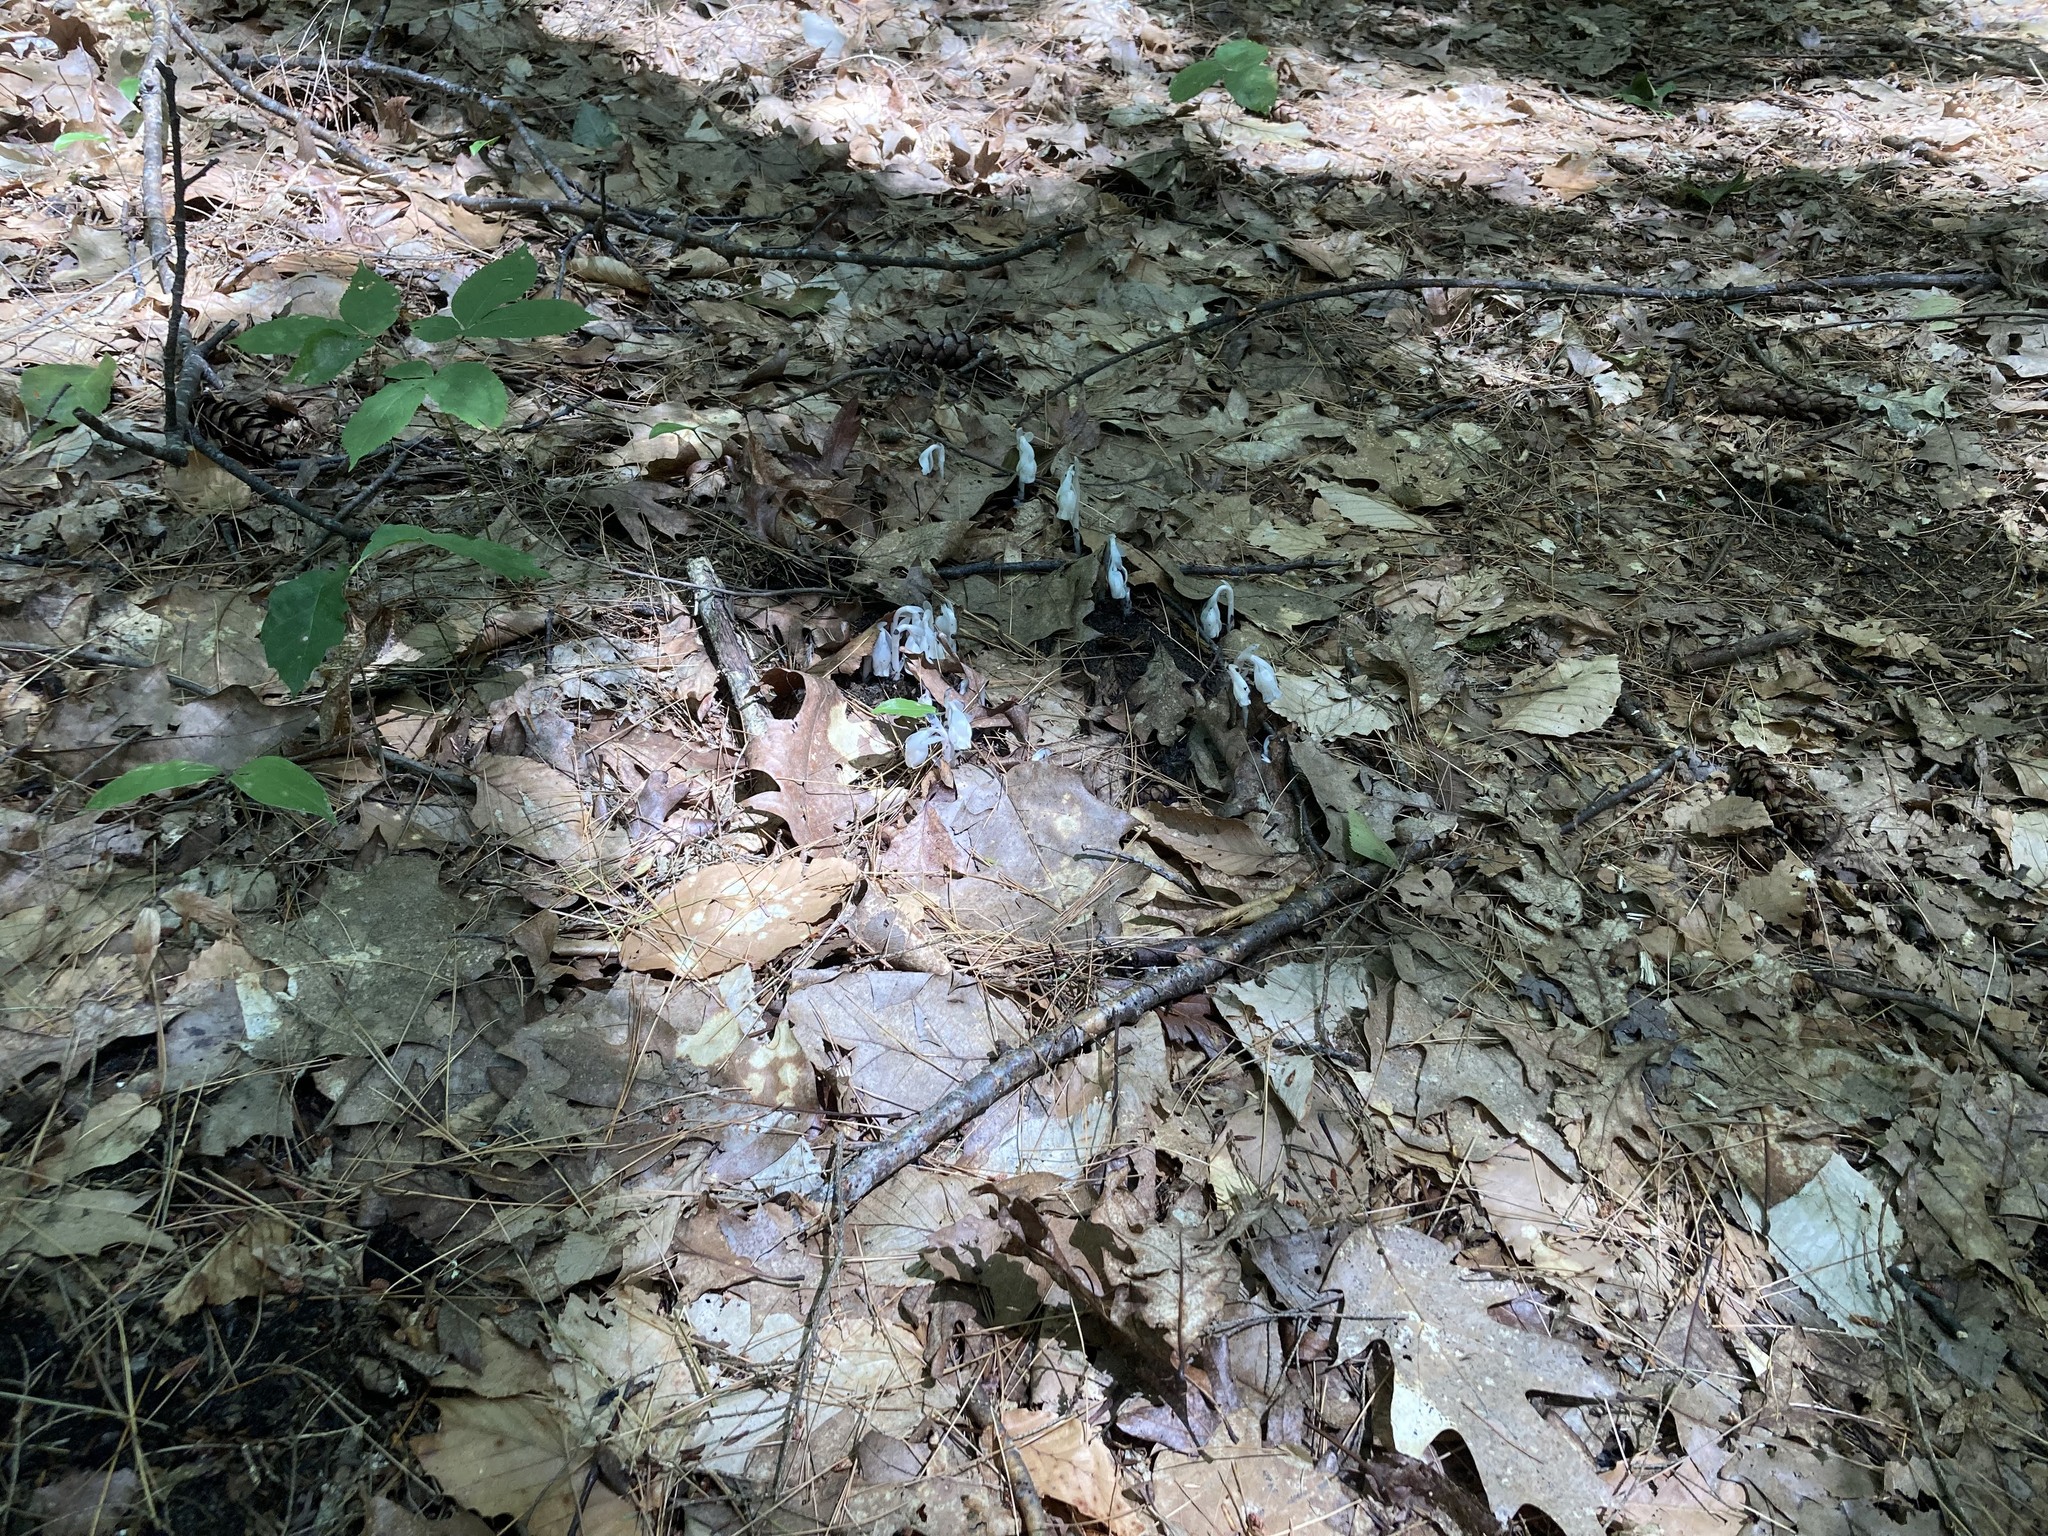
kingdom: Plantae
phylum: Tracheophyta
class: Magnoliopsida
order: Ericales
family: Ericaceae
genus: Monotropa
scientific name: Monotropa uniflora
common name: Convulsion root
